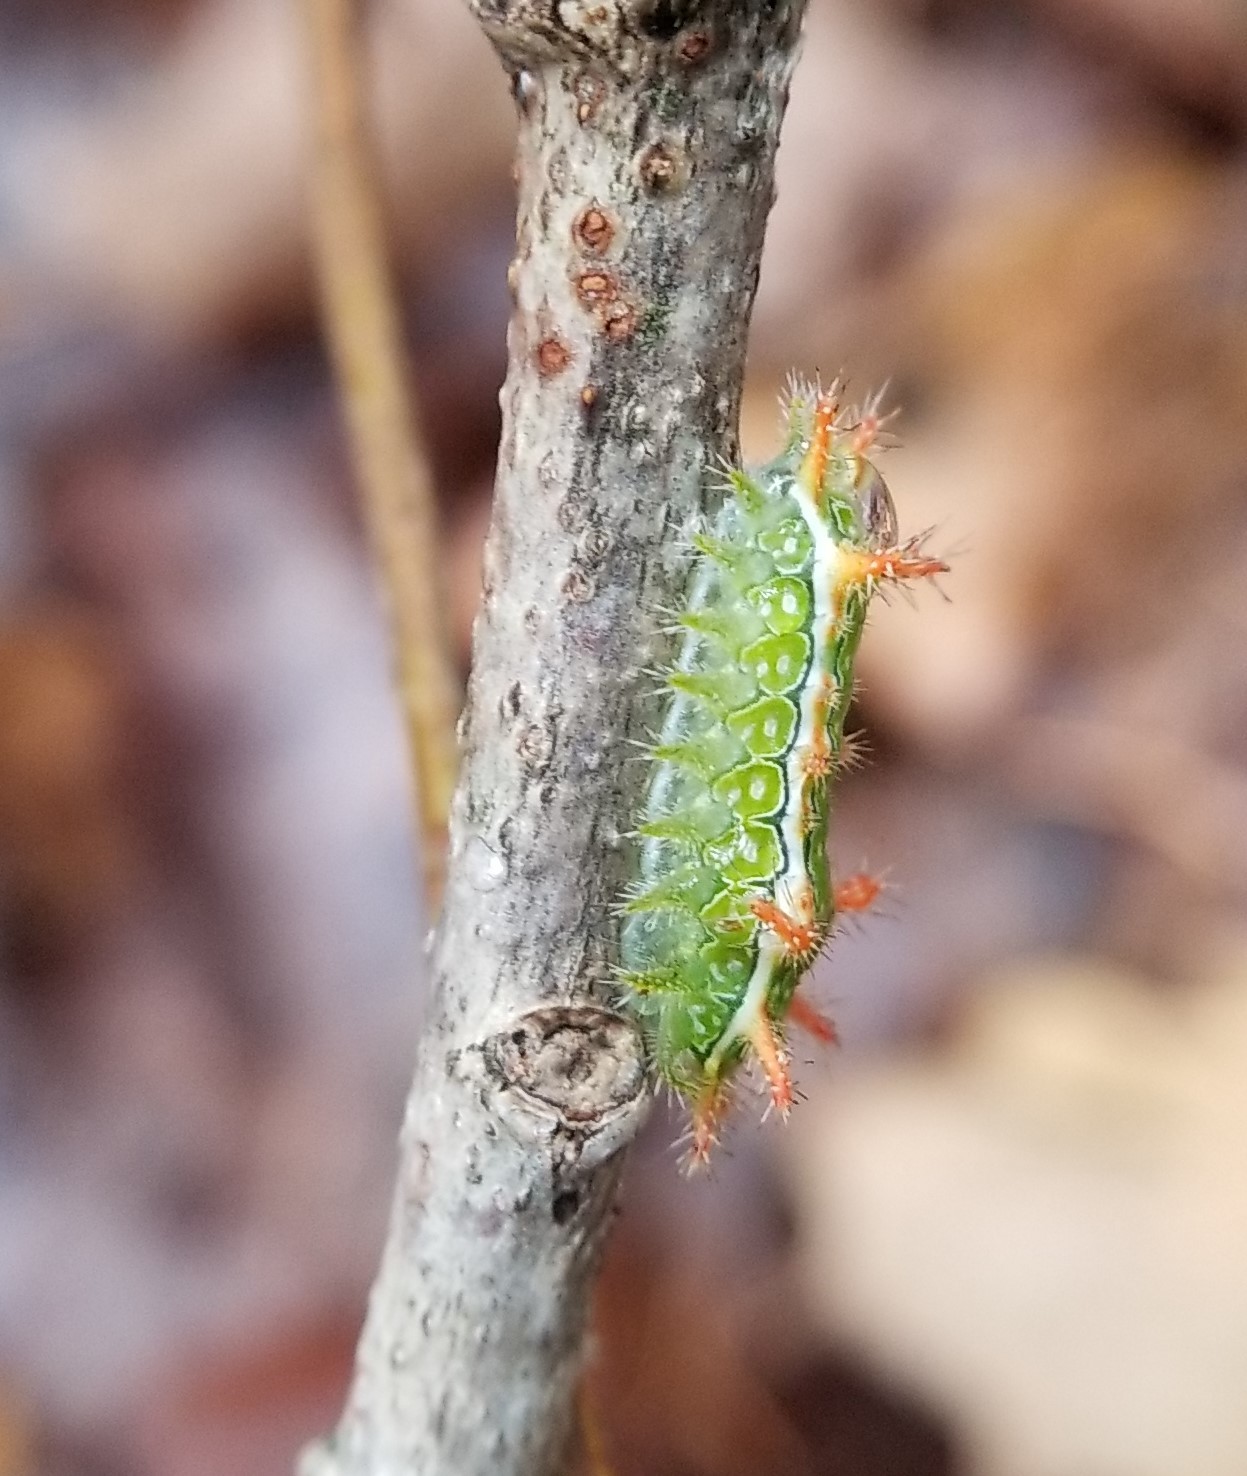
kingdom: Animalia
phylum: Arthropoda
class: Insecta
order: Lepidoptera
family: Limacodidae
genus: Euclea
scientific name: Euclea incisa
